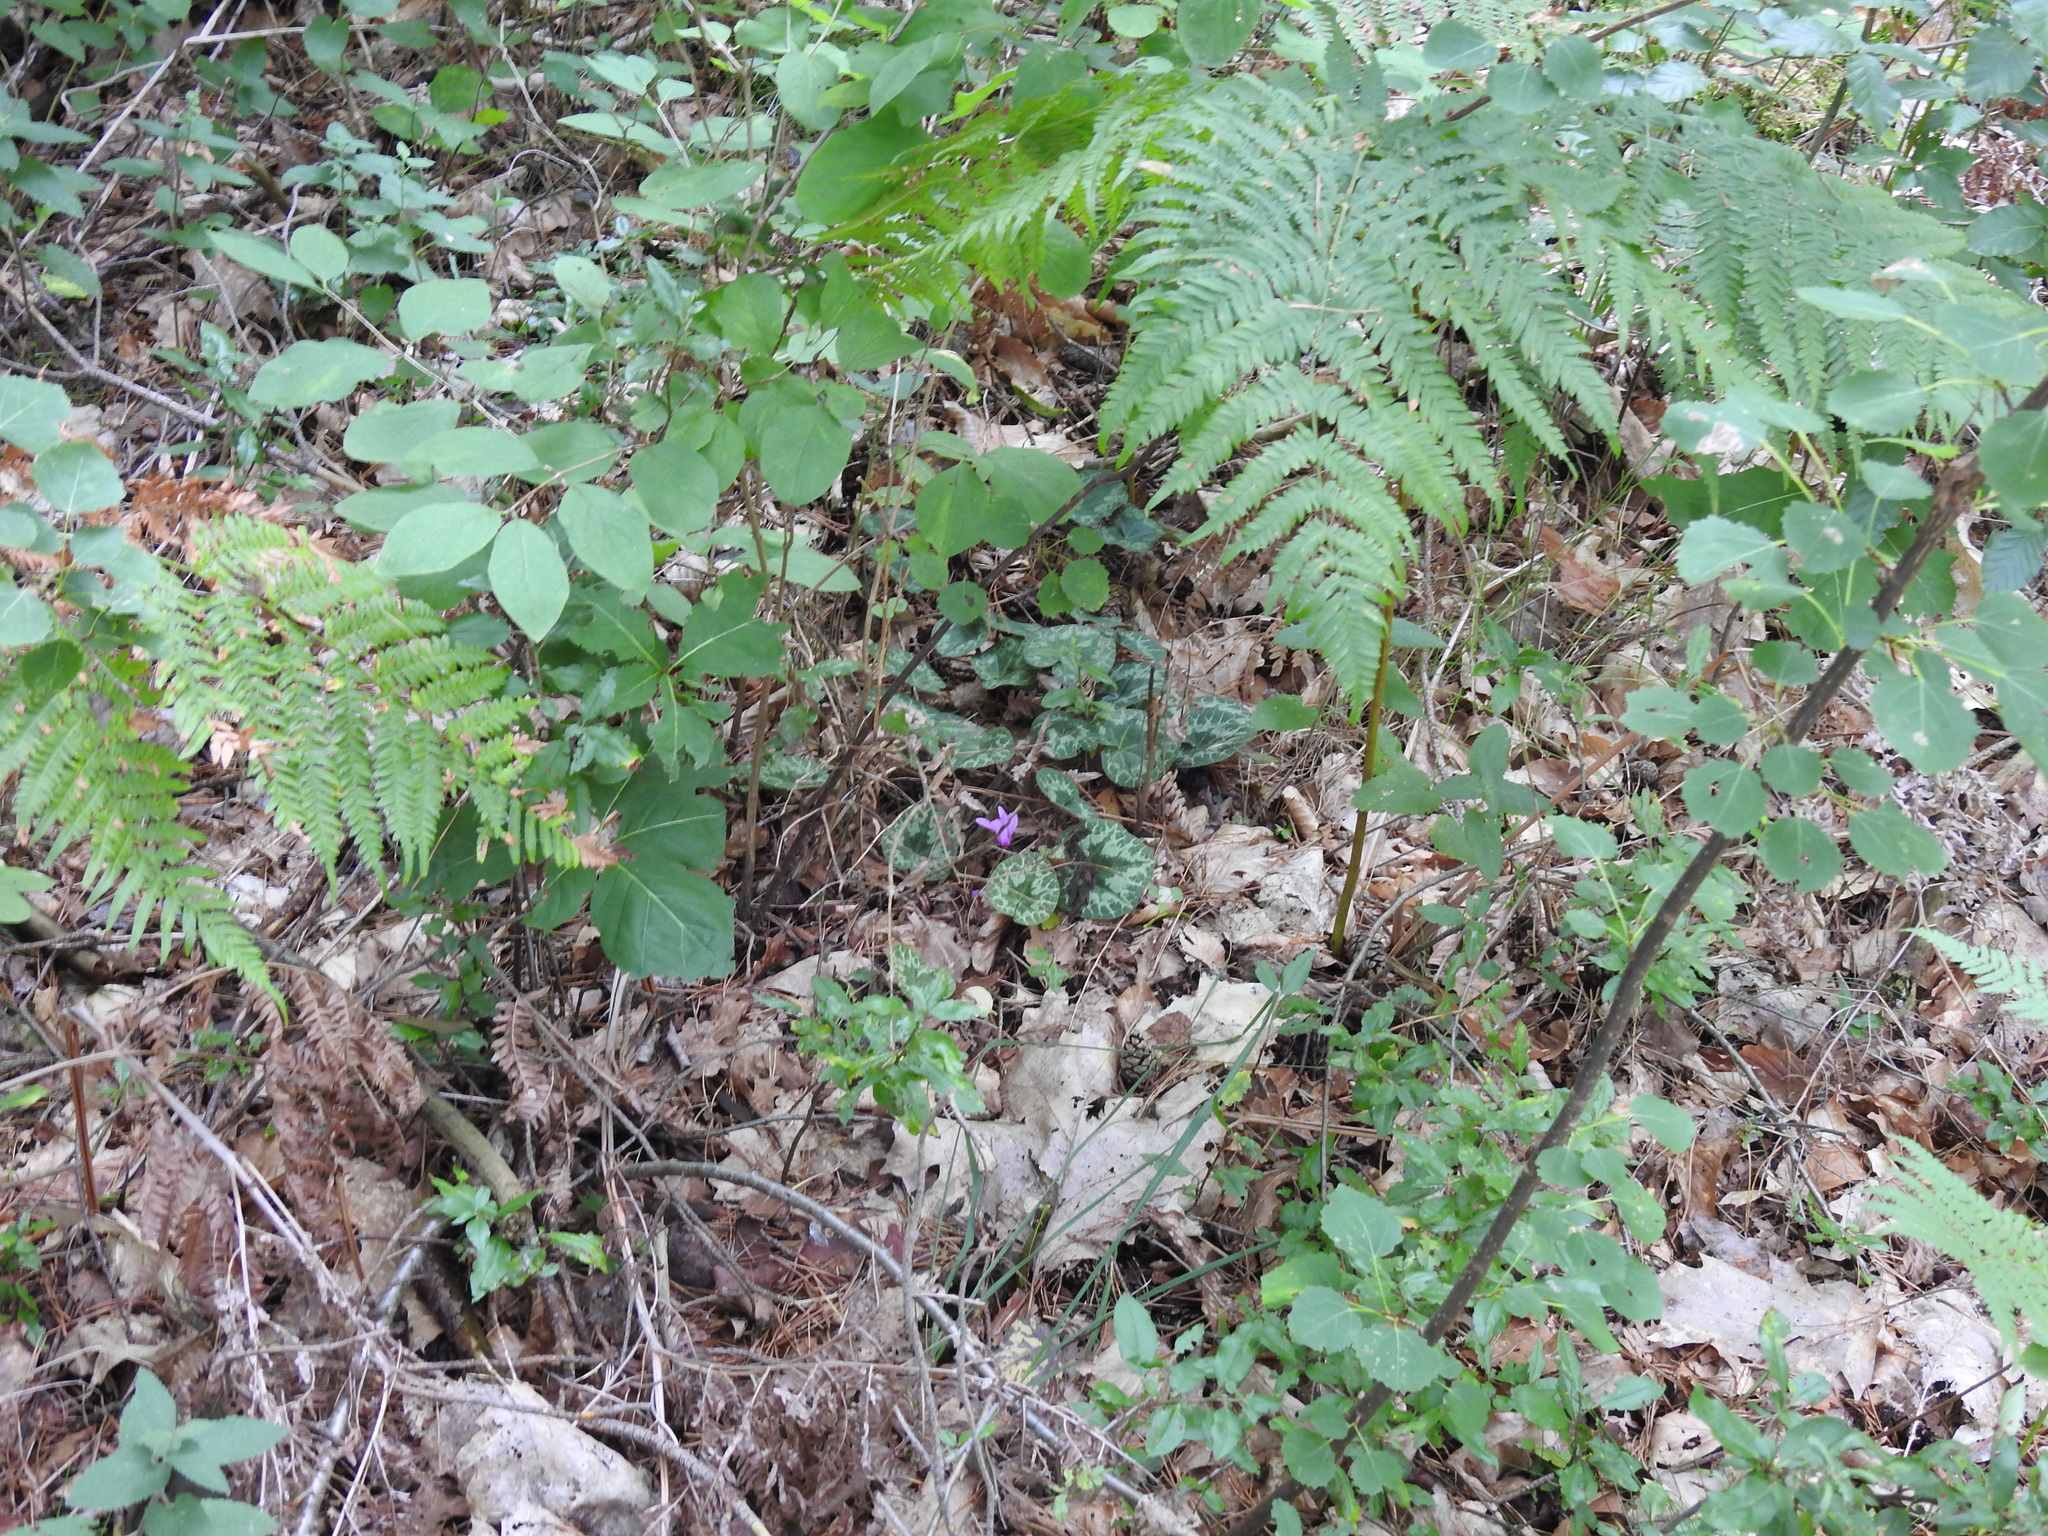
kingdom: Plantae
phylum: Tracheophyta
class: Magnoliopsida
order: Ericales
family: Primulaceae
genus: Cyclamen
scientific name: Cyclamen purpurascens
